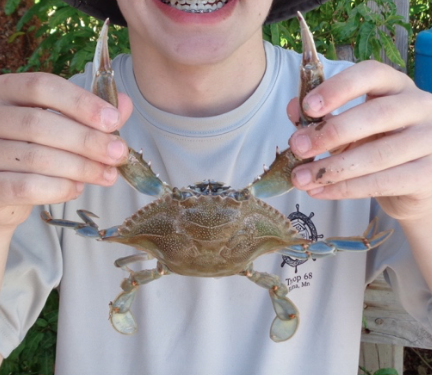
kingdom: Animalia
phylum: Arthropoda
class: Malacostraca
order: Decapoda
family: Portunidae
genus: Callinectes
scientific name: Callinectes sapidus
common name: Blue crab
